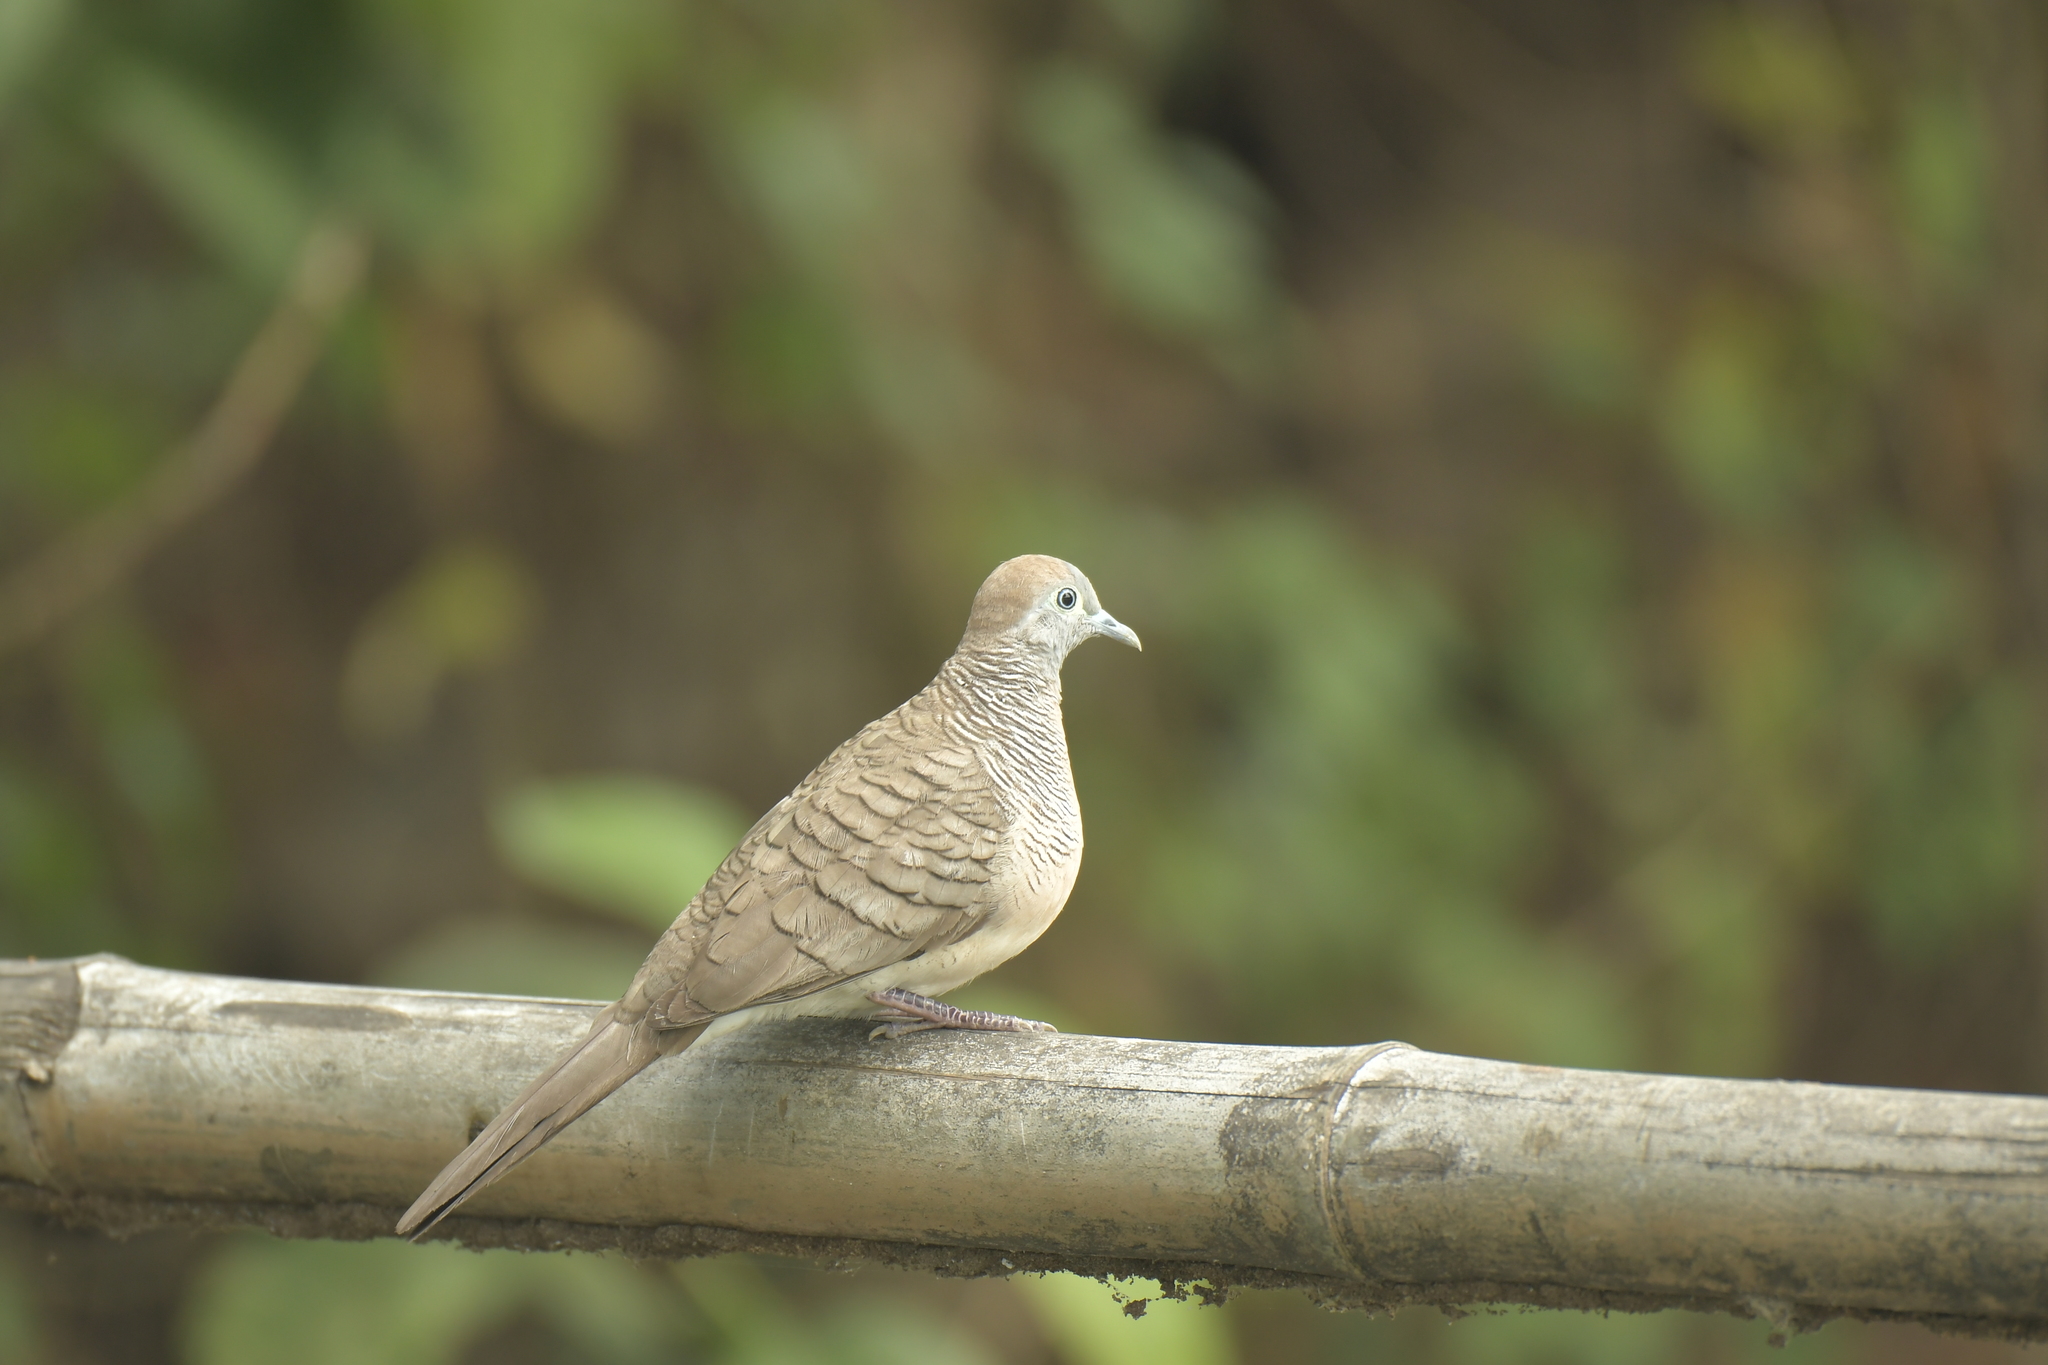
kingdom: Animalia
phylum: Chordata
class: Aves
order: Columbiformes
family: Columbidae
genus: Geopelia
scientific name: Geopelia striata
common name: Zebra dove
